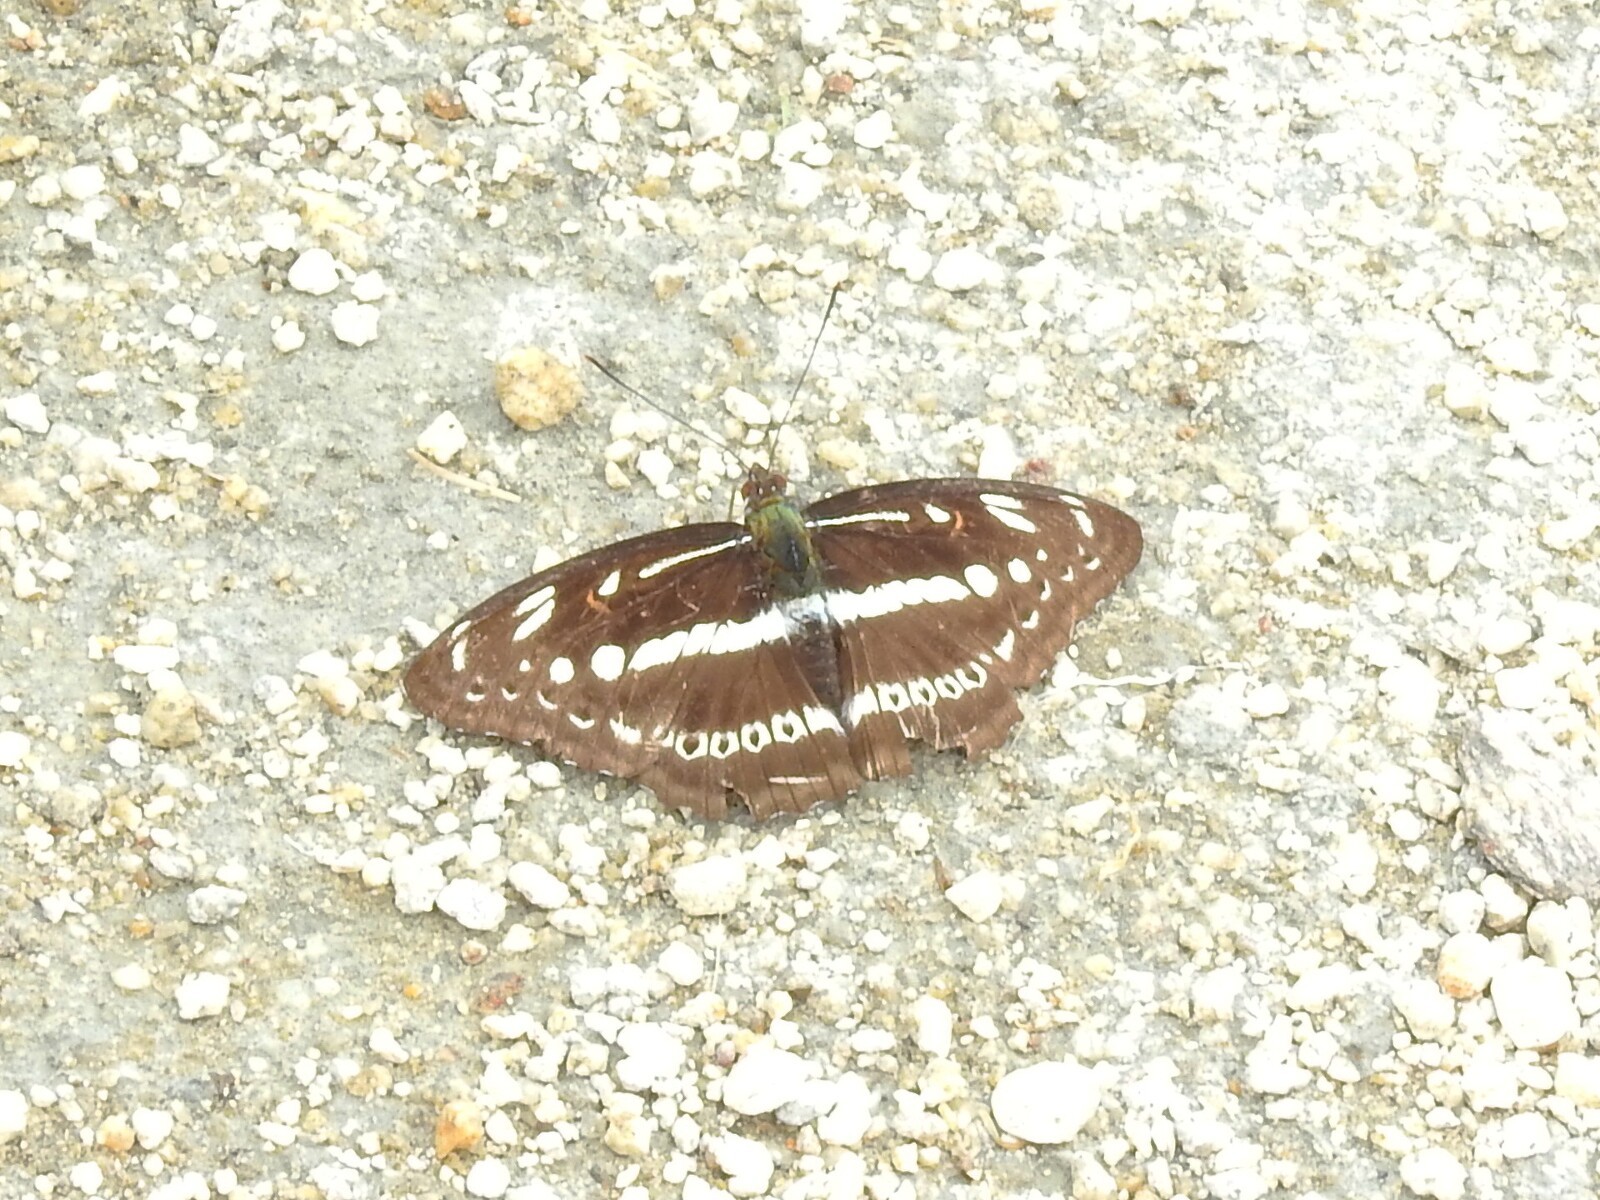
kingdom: Animalia
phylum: Arthropoda
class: Insecta
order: Lepidoptera
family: Nymphalidae
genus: Parathyma
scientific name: Parathyma asura
